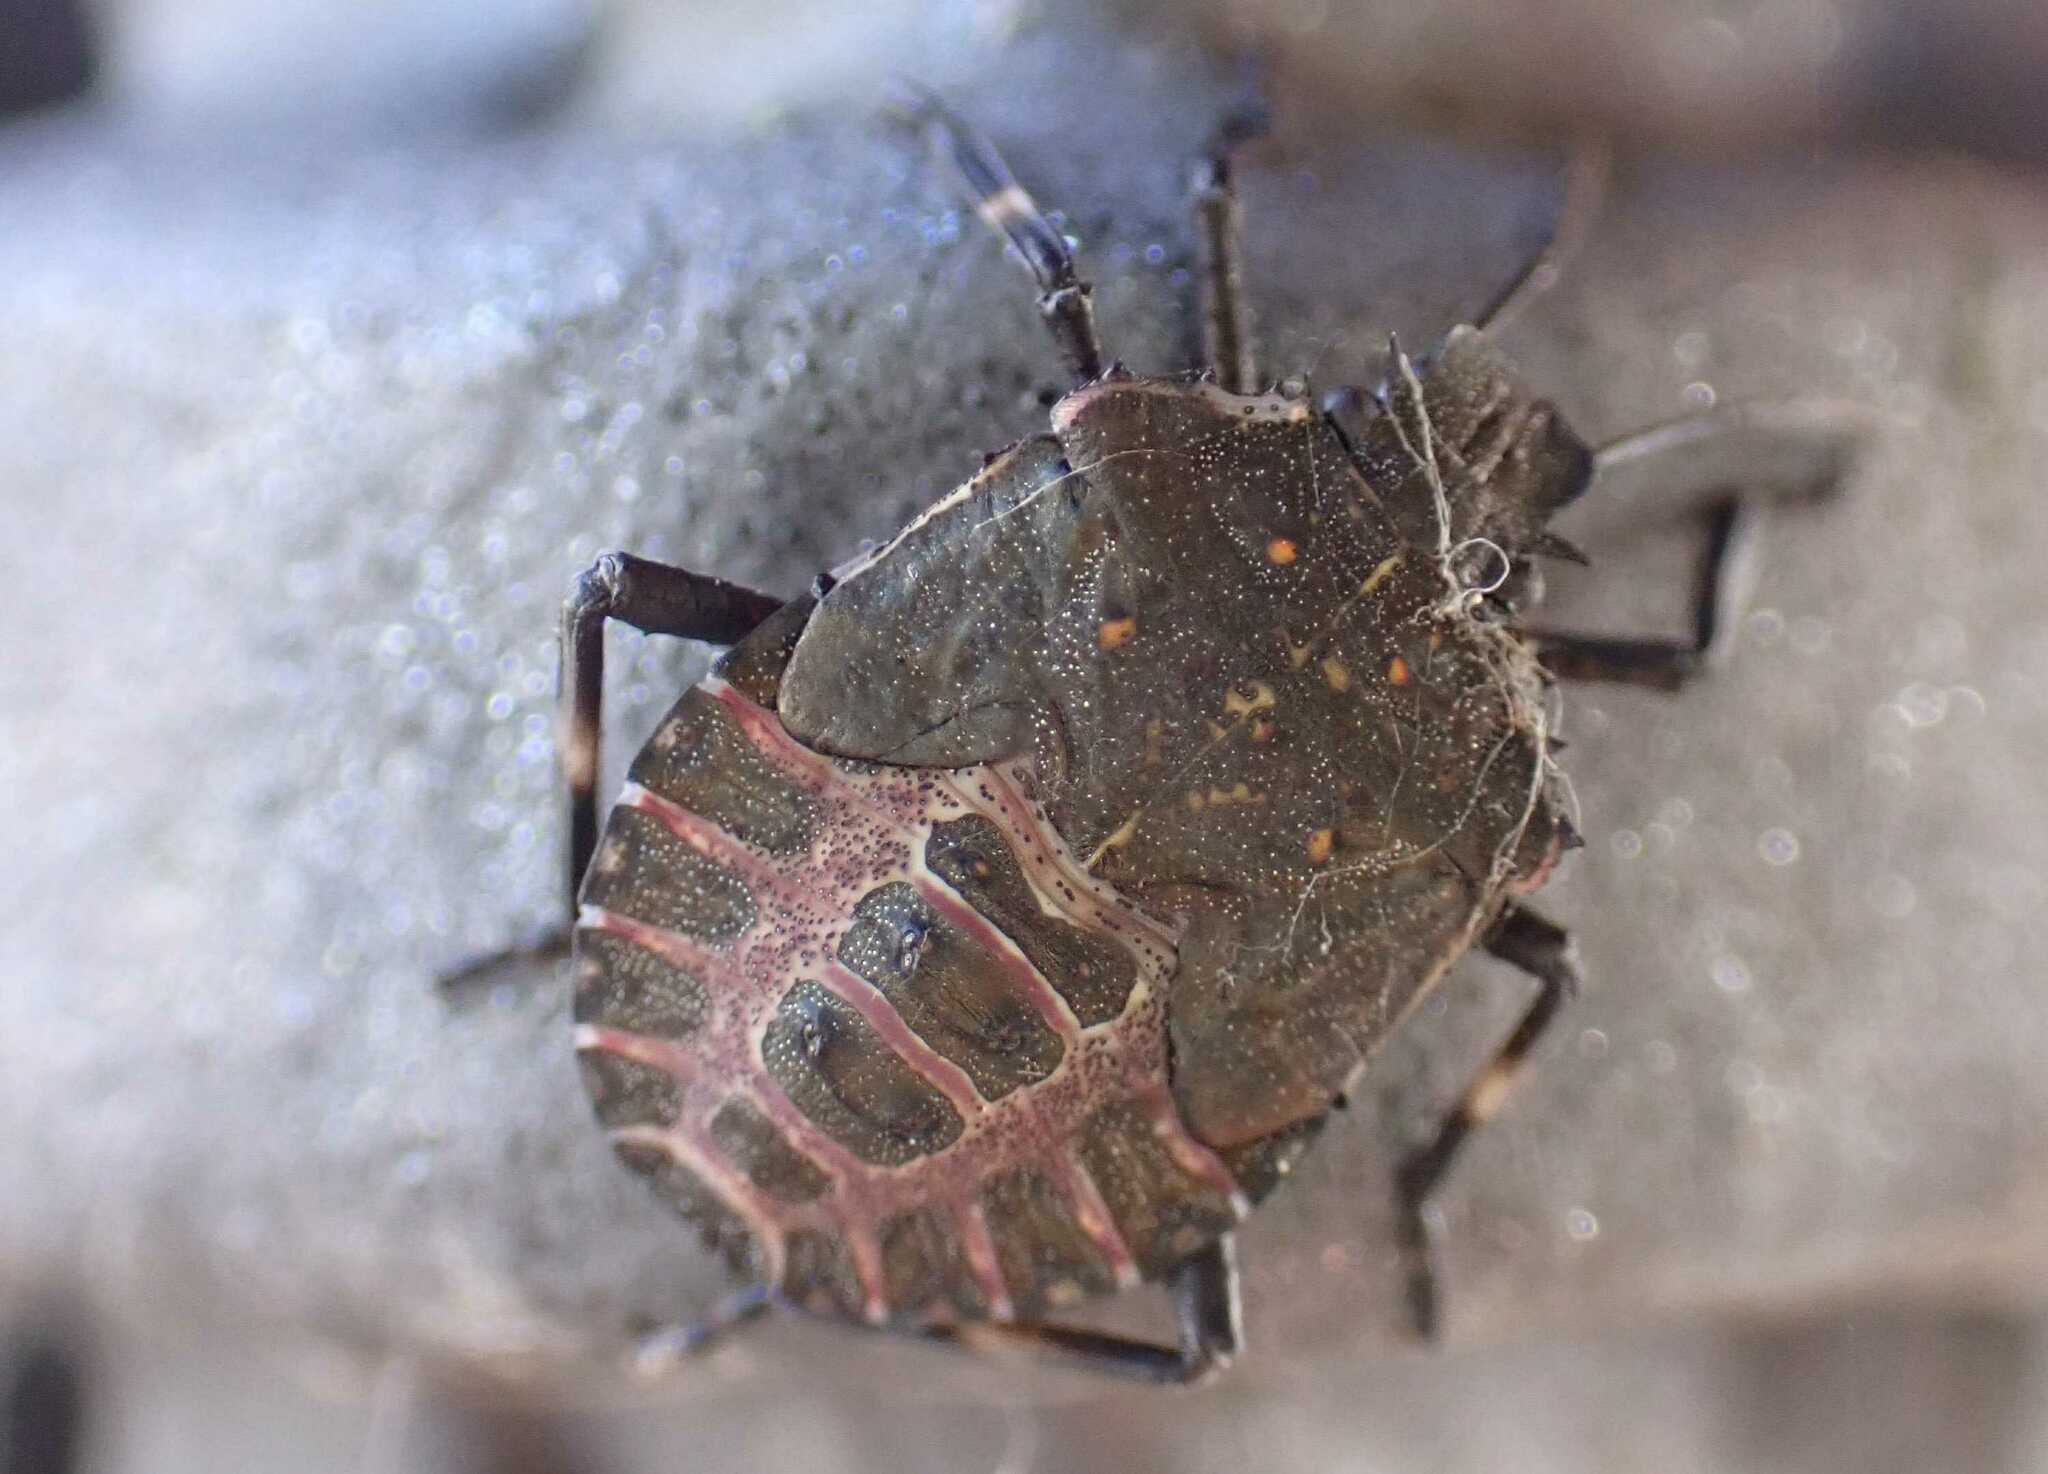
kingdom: Animalia
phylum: Arthropoda
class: Insecta
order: Hemiptera
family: Pentatomidae
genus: Halyomorpha
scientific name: Halyomorpha halys
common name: Brown marmorated stink bug
